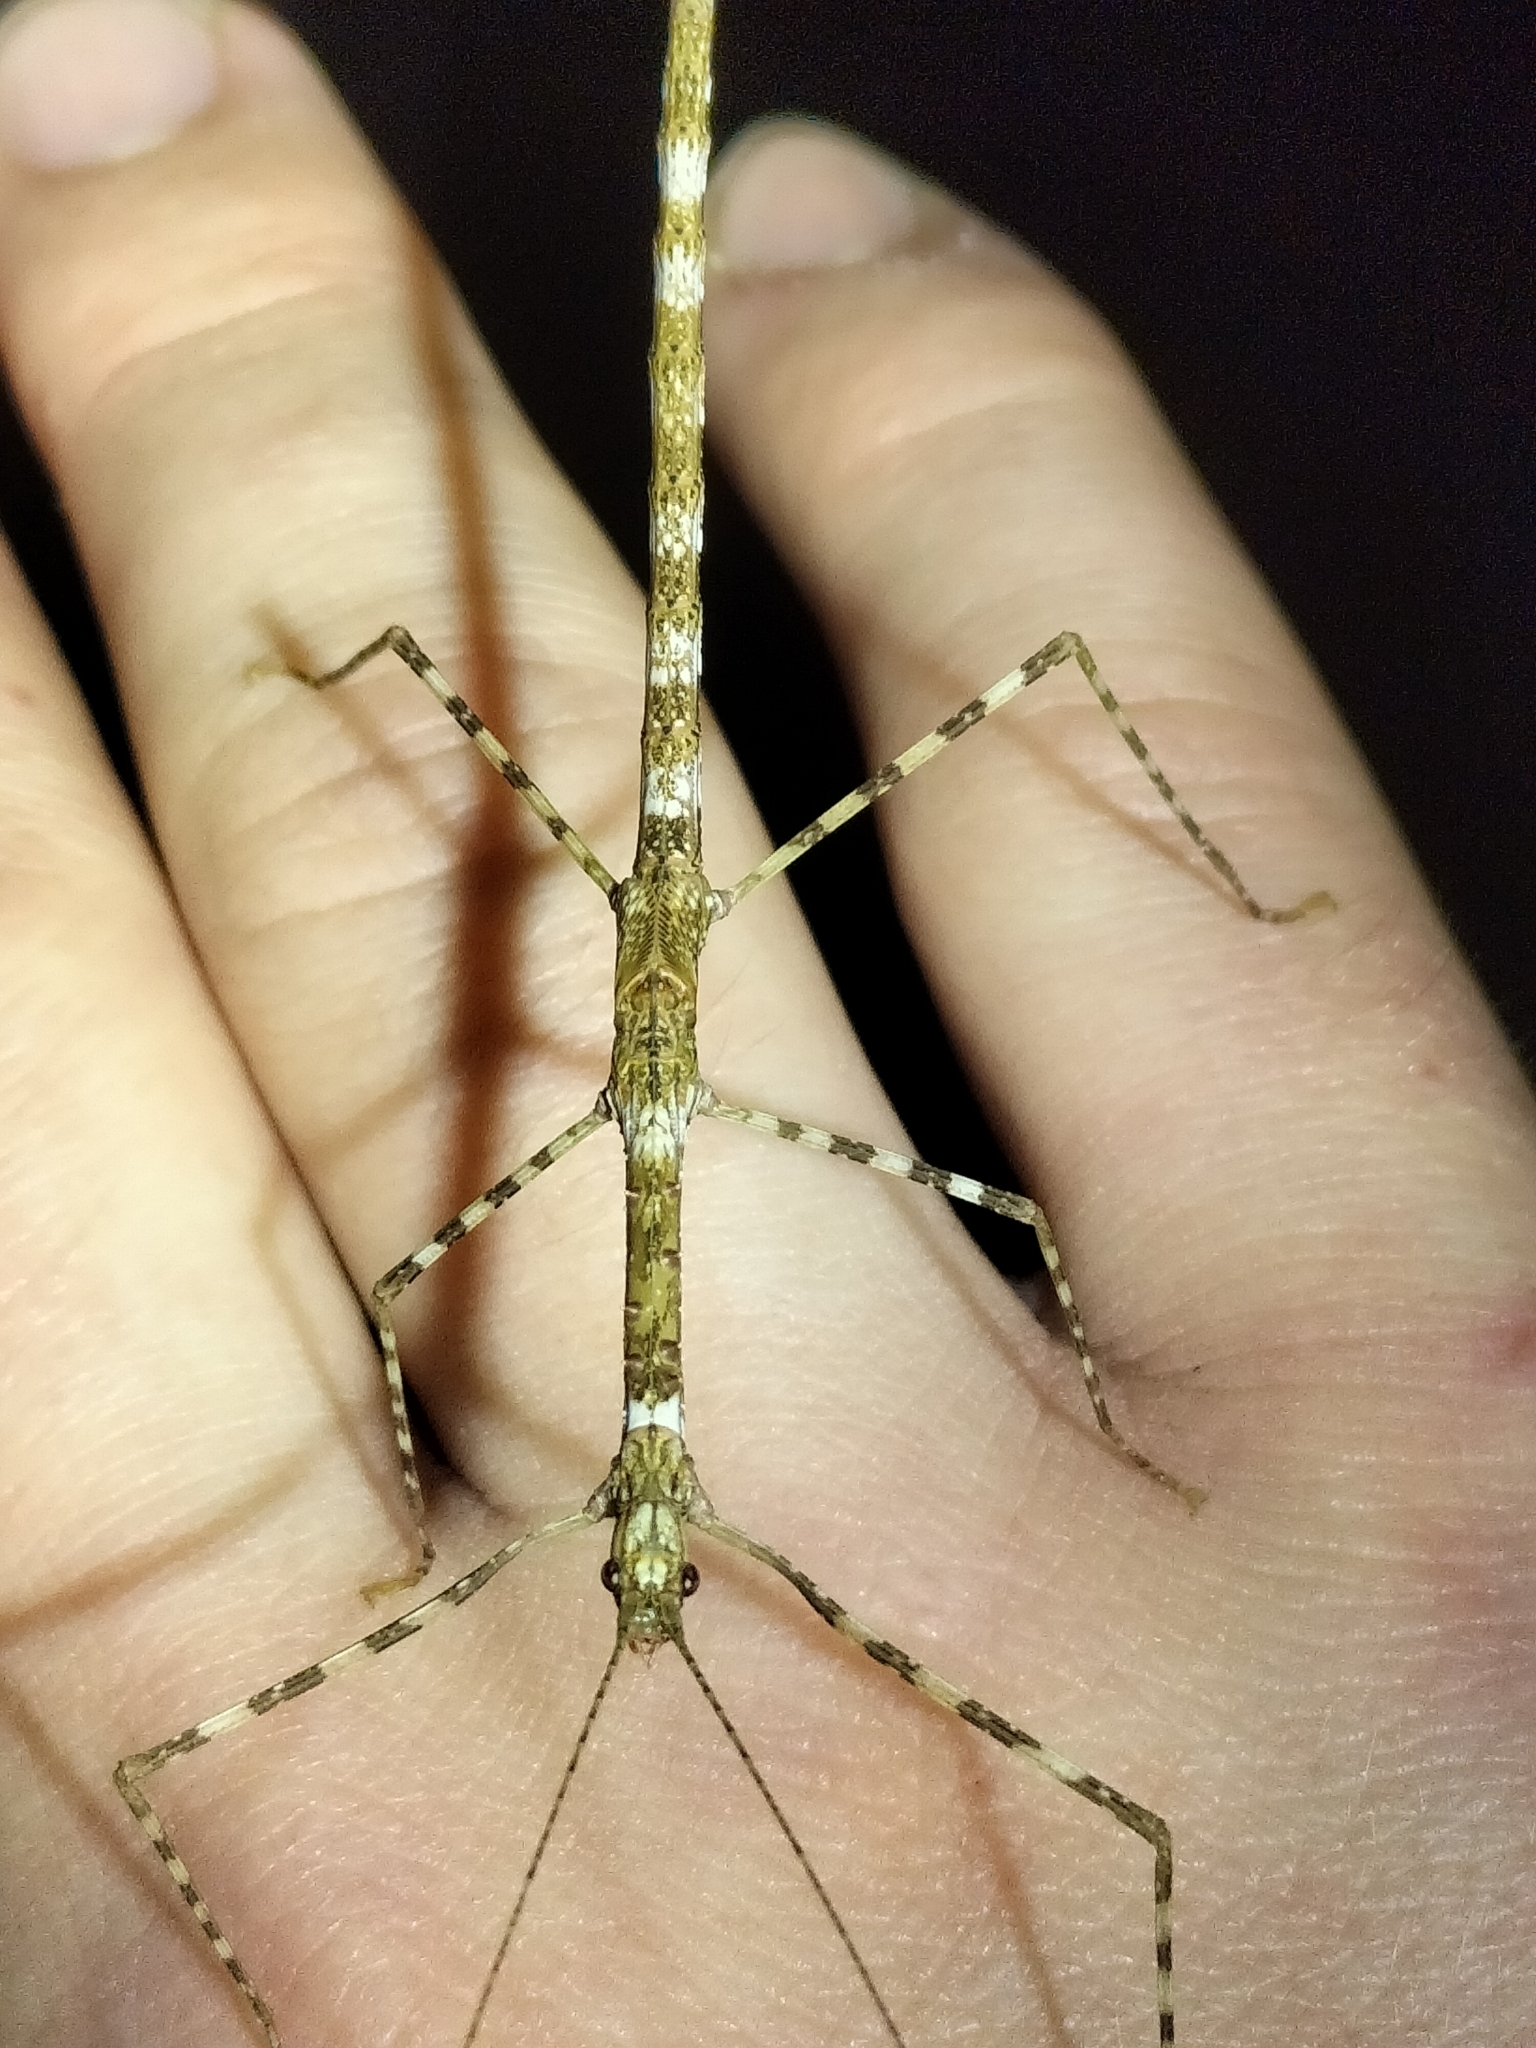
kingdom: Animalia
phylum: Arthropoda
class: Insecta
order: Phasmida
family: Lonchodidae
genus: Rhamphosipyloidea
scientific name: Rhamphosipyloidea queenslandica
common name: Queensland winged beak-abdomen stick-insect
